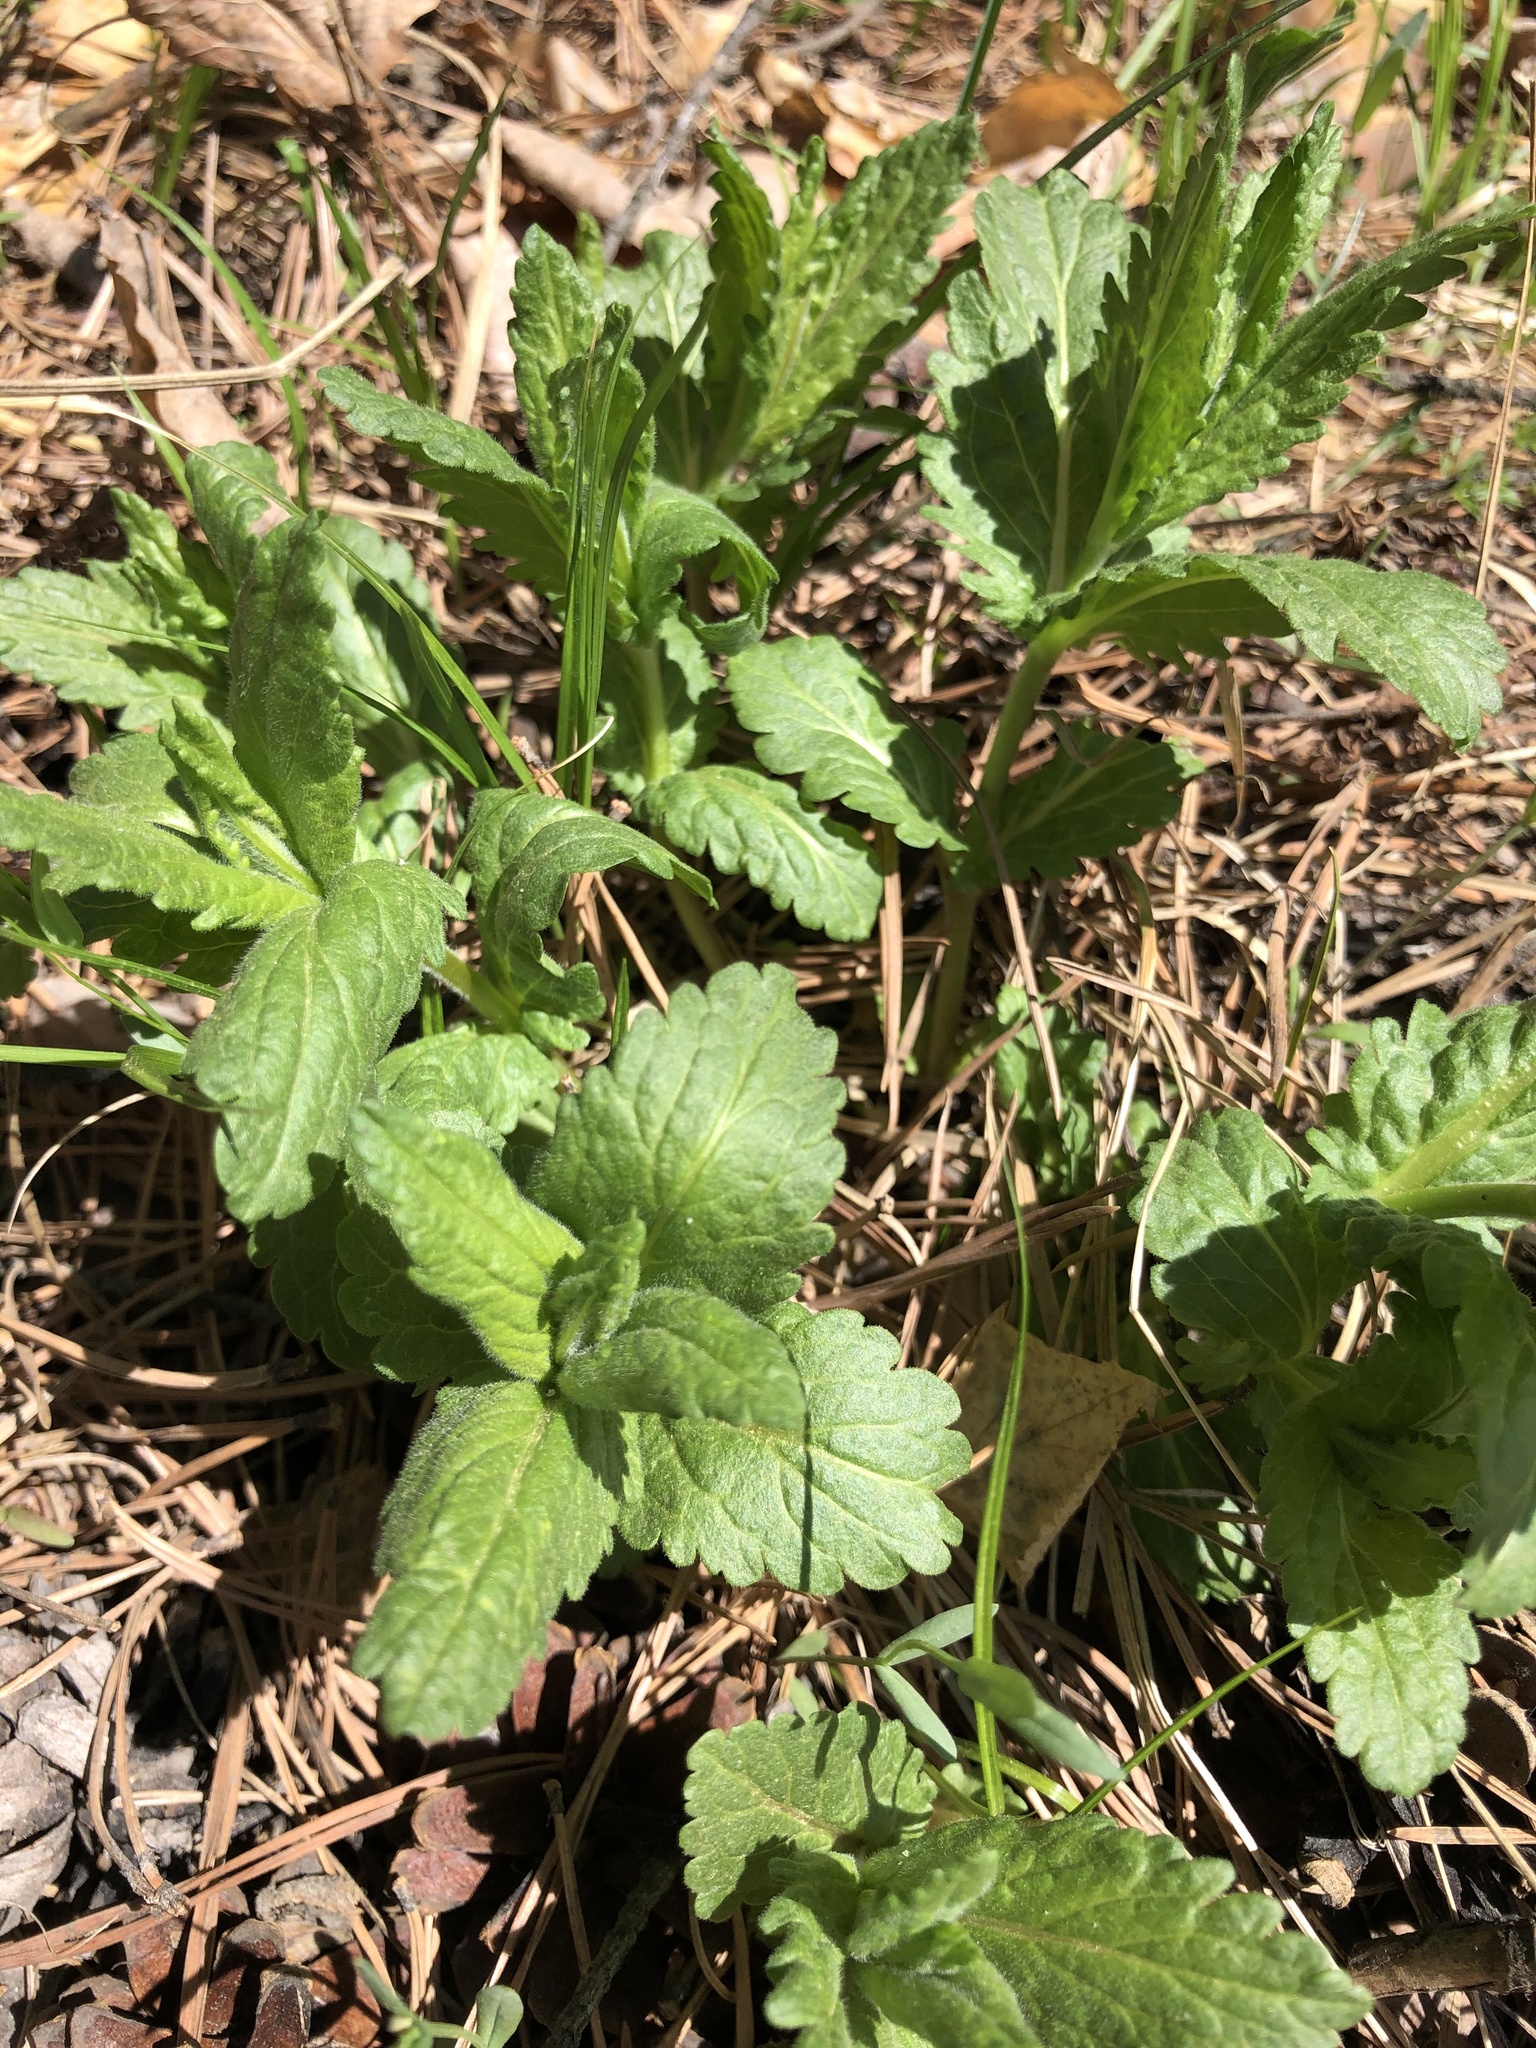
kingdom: Plantae
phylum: Tracheophyta
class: Magnoliopsida
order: Lamiales
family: Plantaginaceae
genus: Veronica
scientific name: Veronica teucrium
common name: Large speedwell
